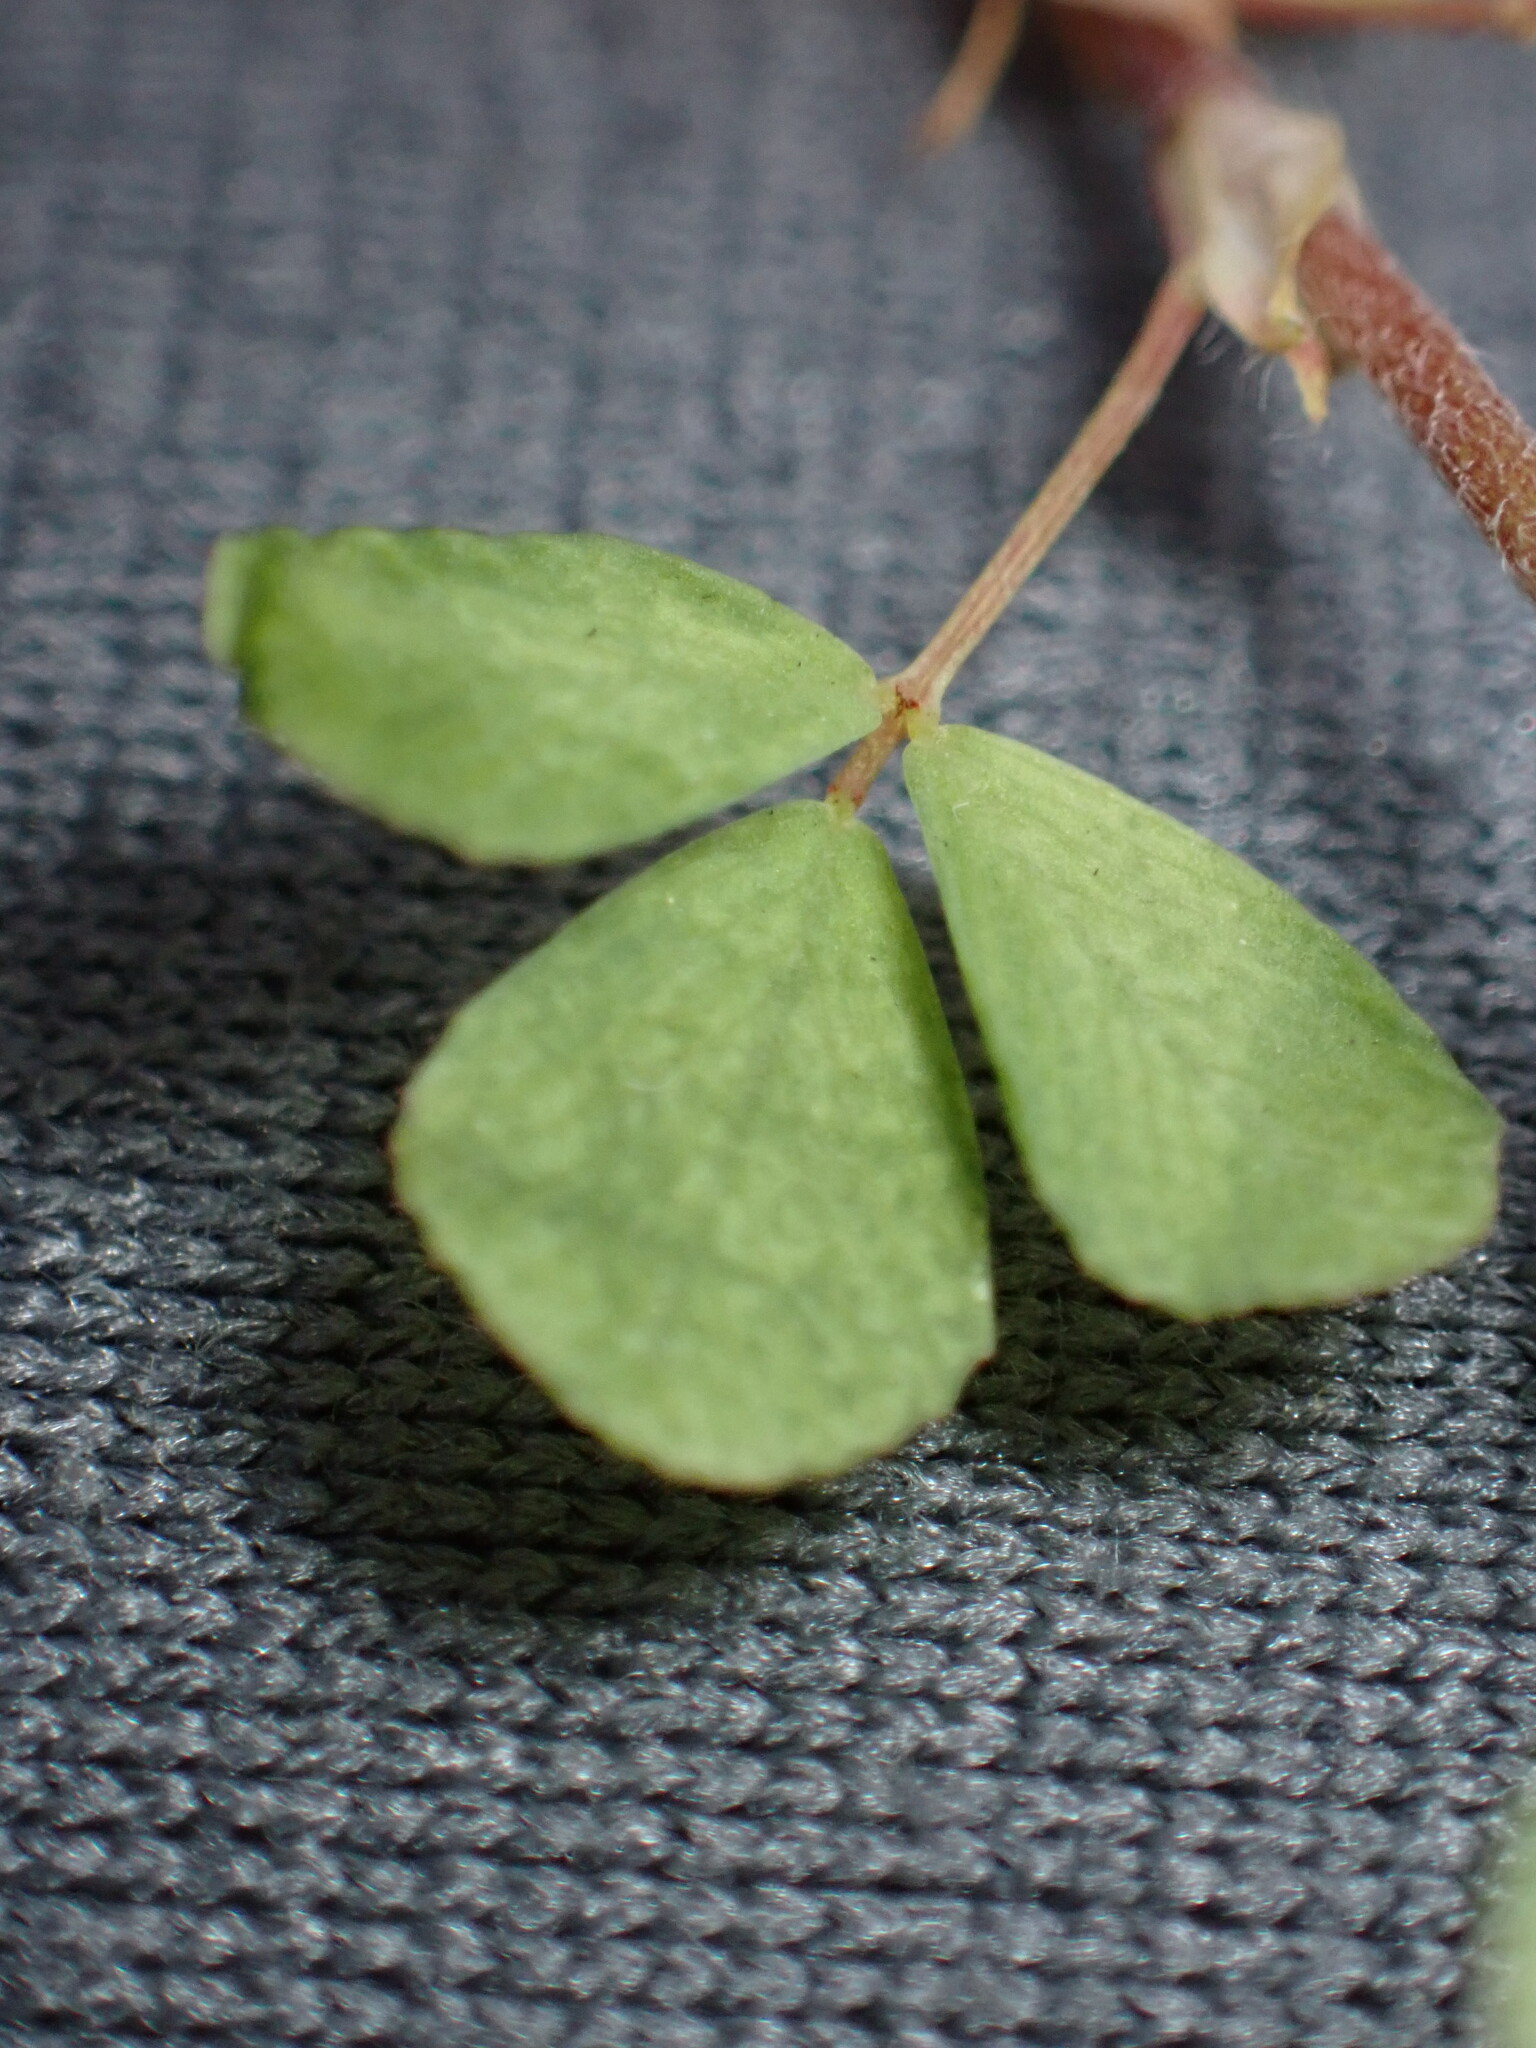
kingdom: Plantae
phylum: Tracheophyta
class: Magnoliopsida
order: Fabales
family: Fabaceae
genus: Trifolium
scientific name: Trifolium campestre
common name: Field clover
